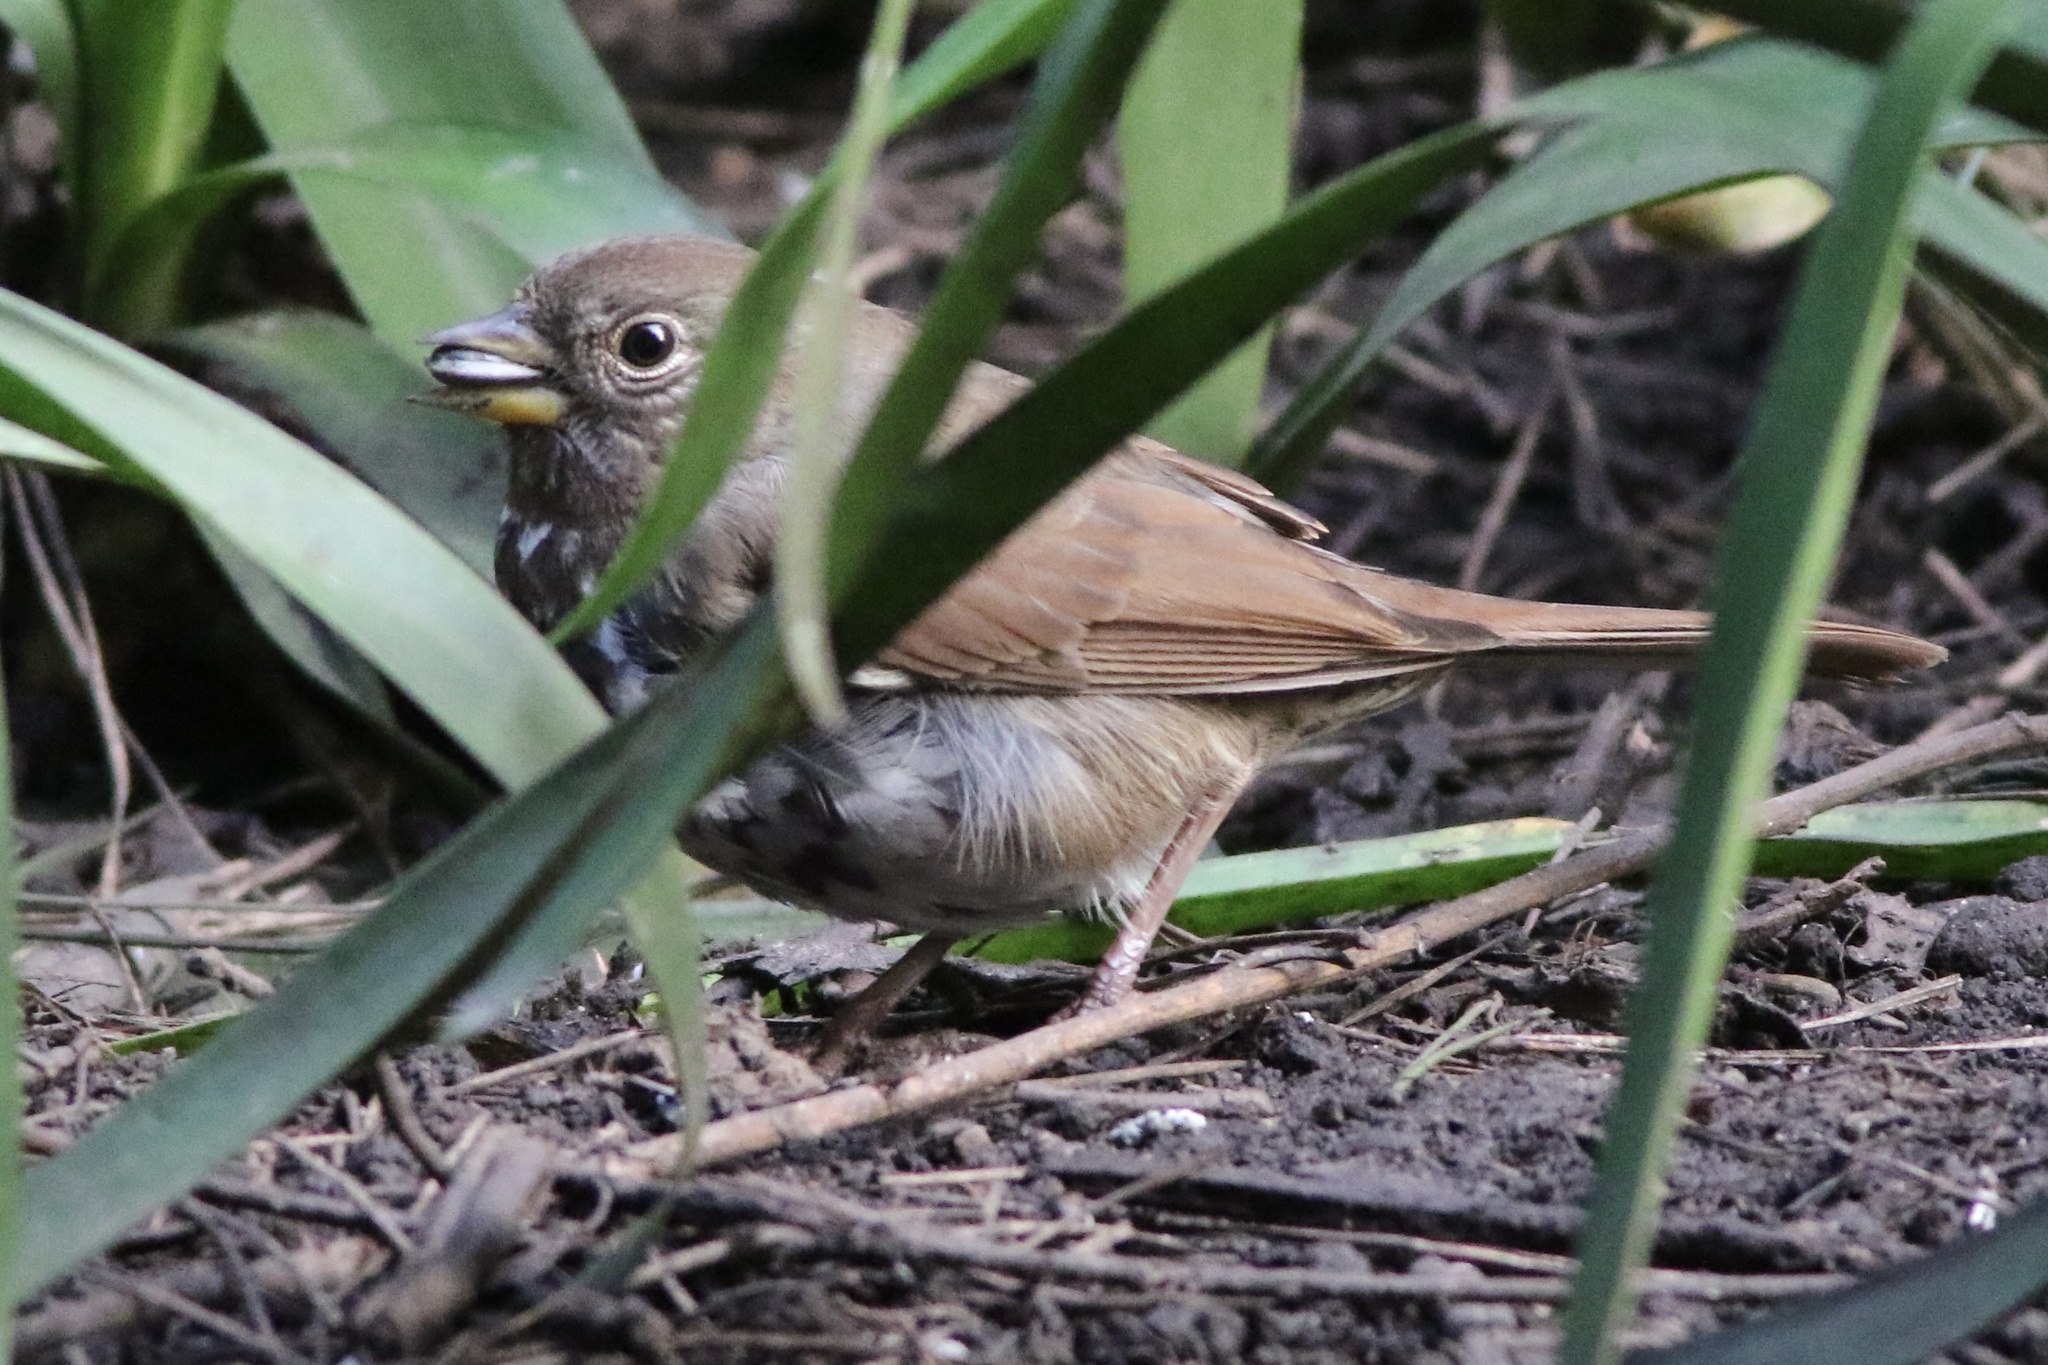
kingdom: Animalia
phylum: Chordata
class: Aves
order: Passeriformes
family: Passerellidae
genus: Passerella
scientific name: Passerella iliaca
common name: Fox sparrow
